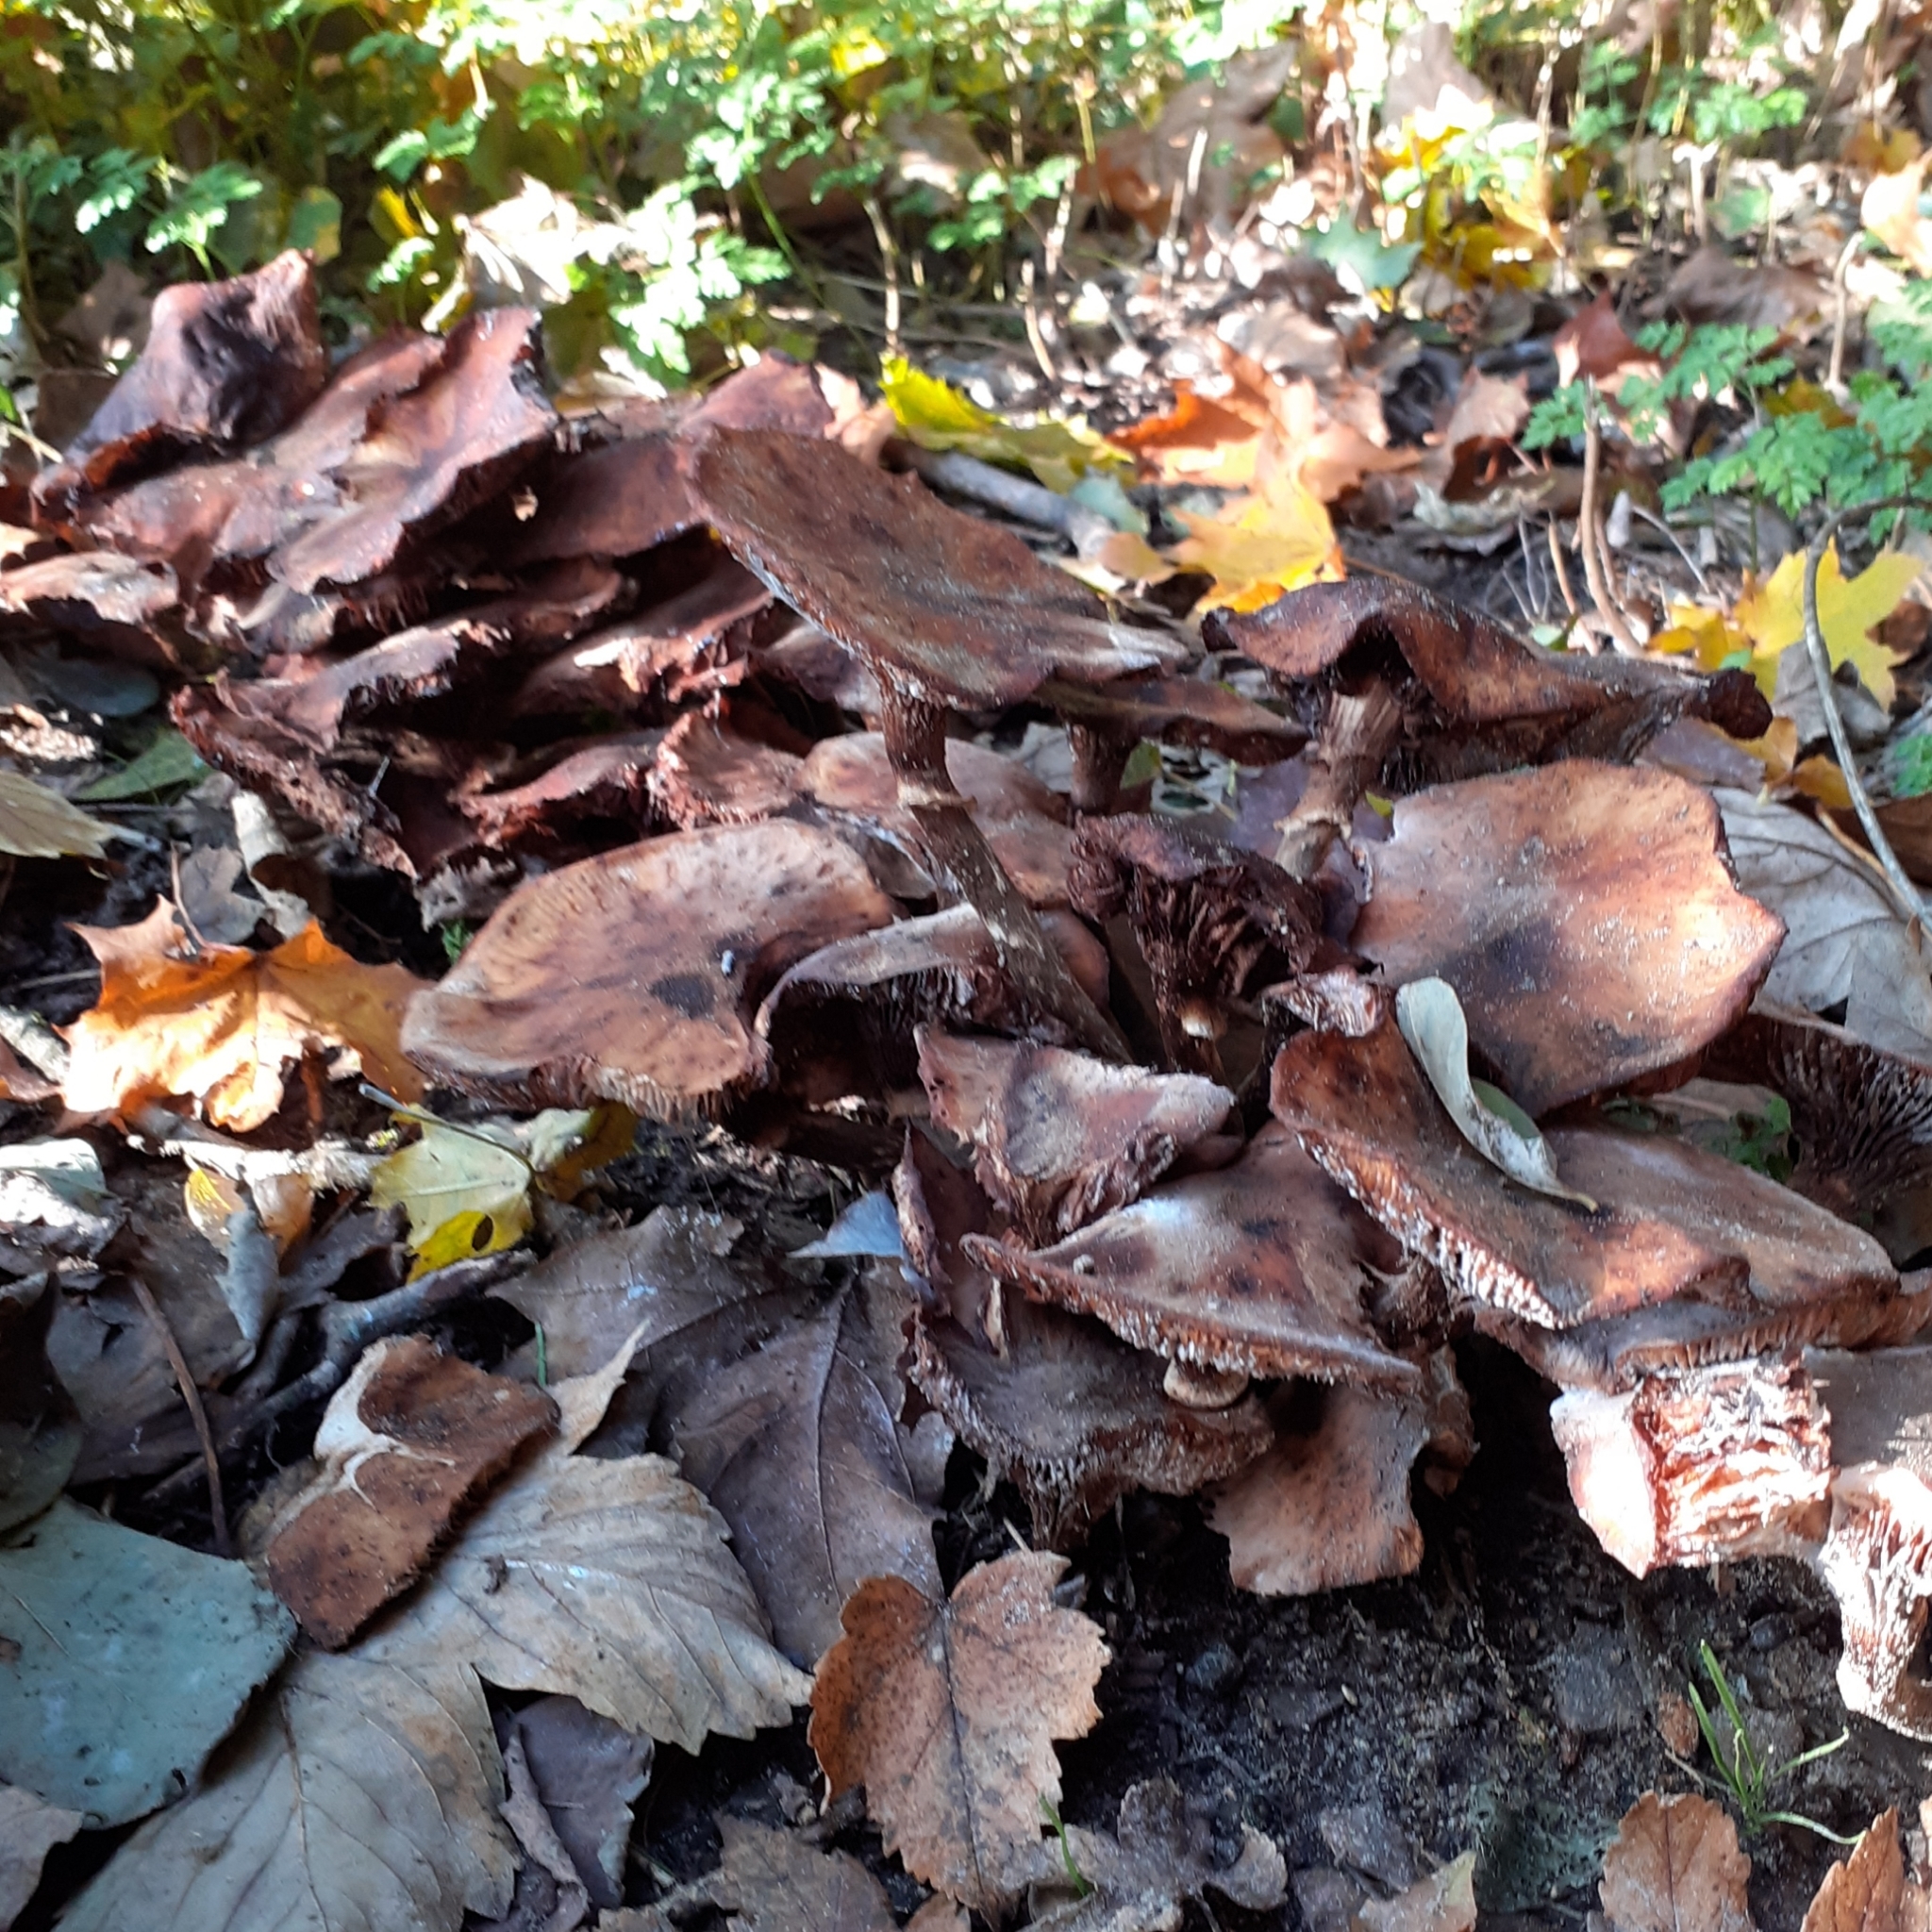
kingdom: Fungi
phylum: Basidiomycota
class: Agaricomycetes
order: Agaricales
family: Physalacriaceae
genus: Armillaria
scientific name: Armillaria mellea
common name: Honey fungus
